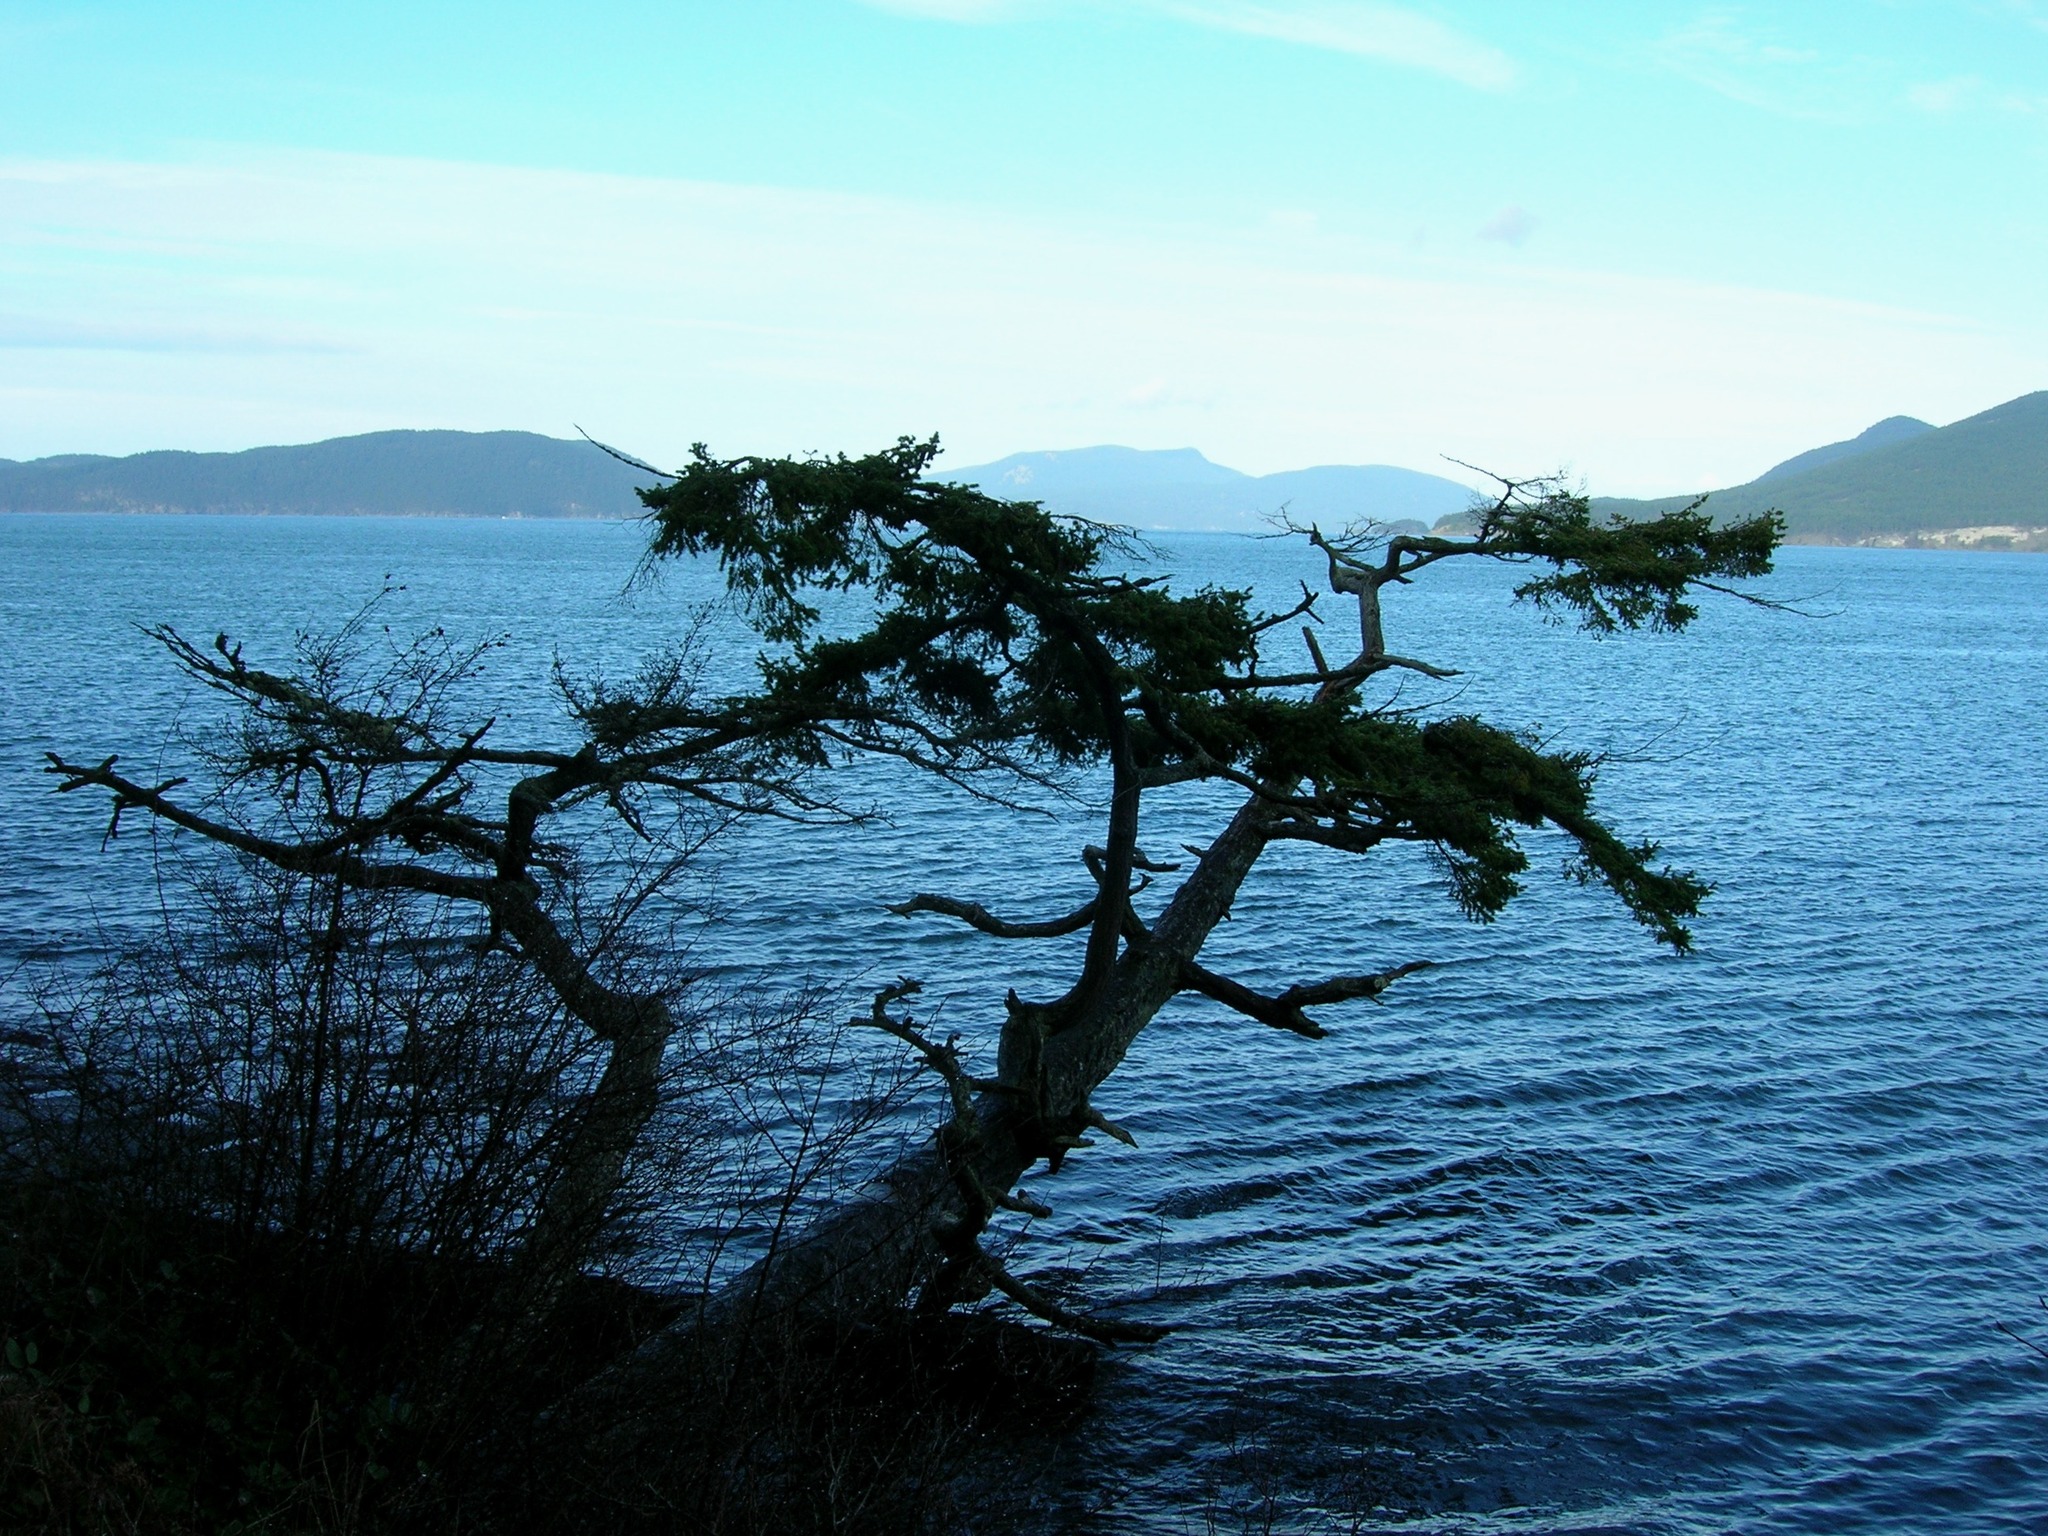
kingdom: Plantae
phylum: Tracheophyta
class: Pinopsida
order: Pinales
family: Pinaceae
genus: Pseudotsuga
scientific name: Pseudotsuga menziesii
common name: Douglas fir
